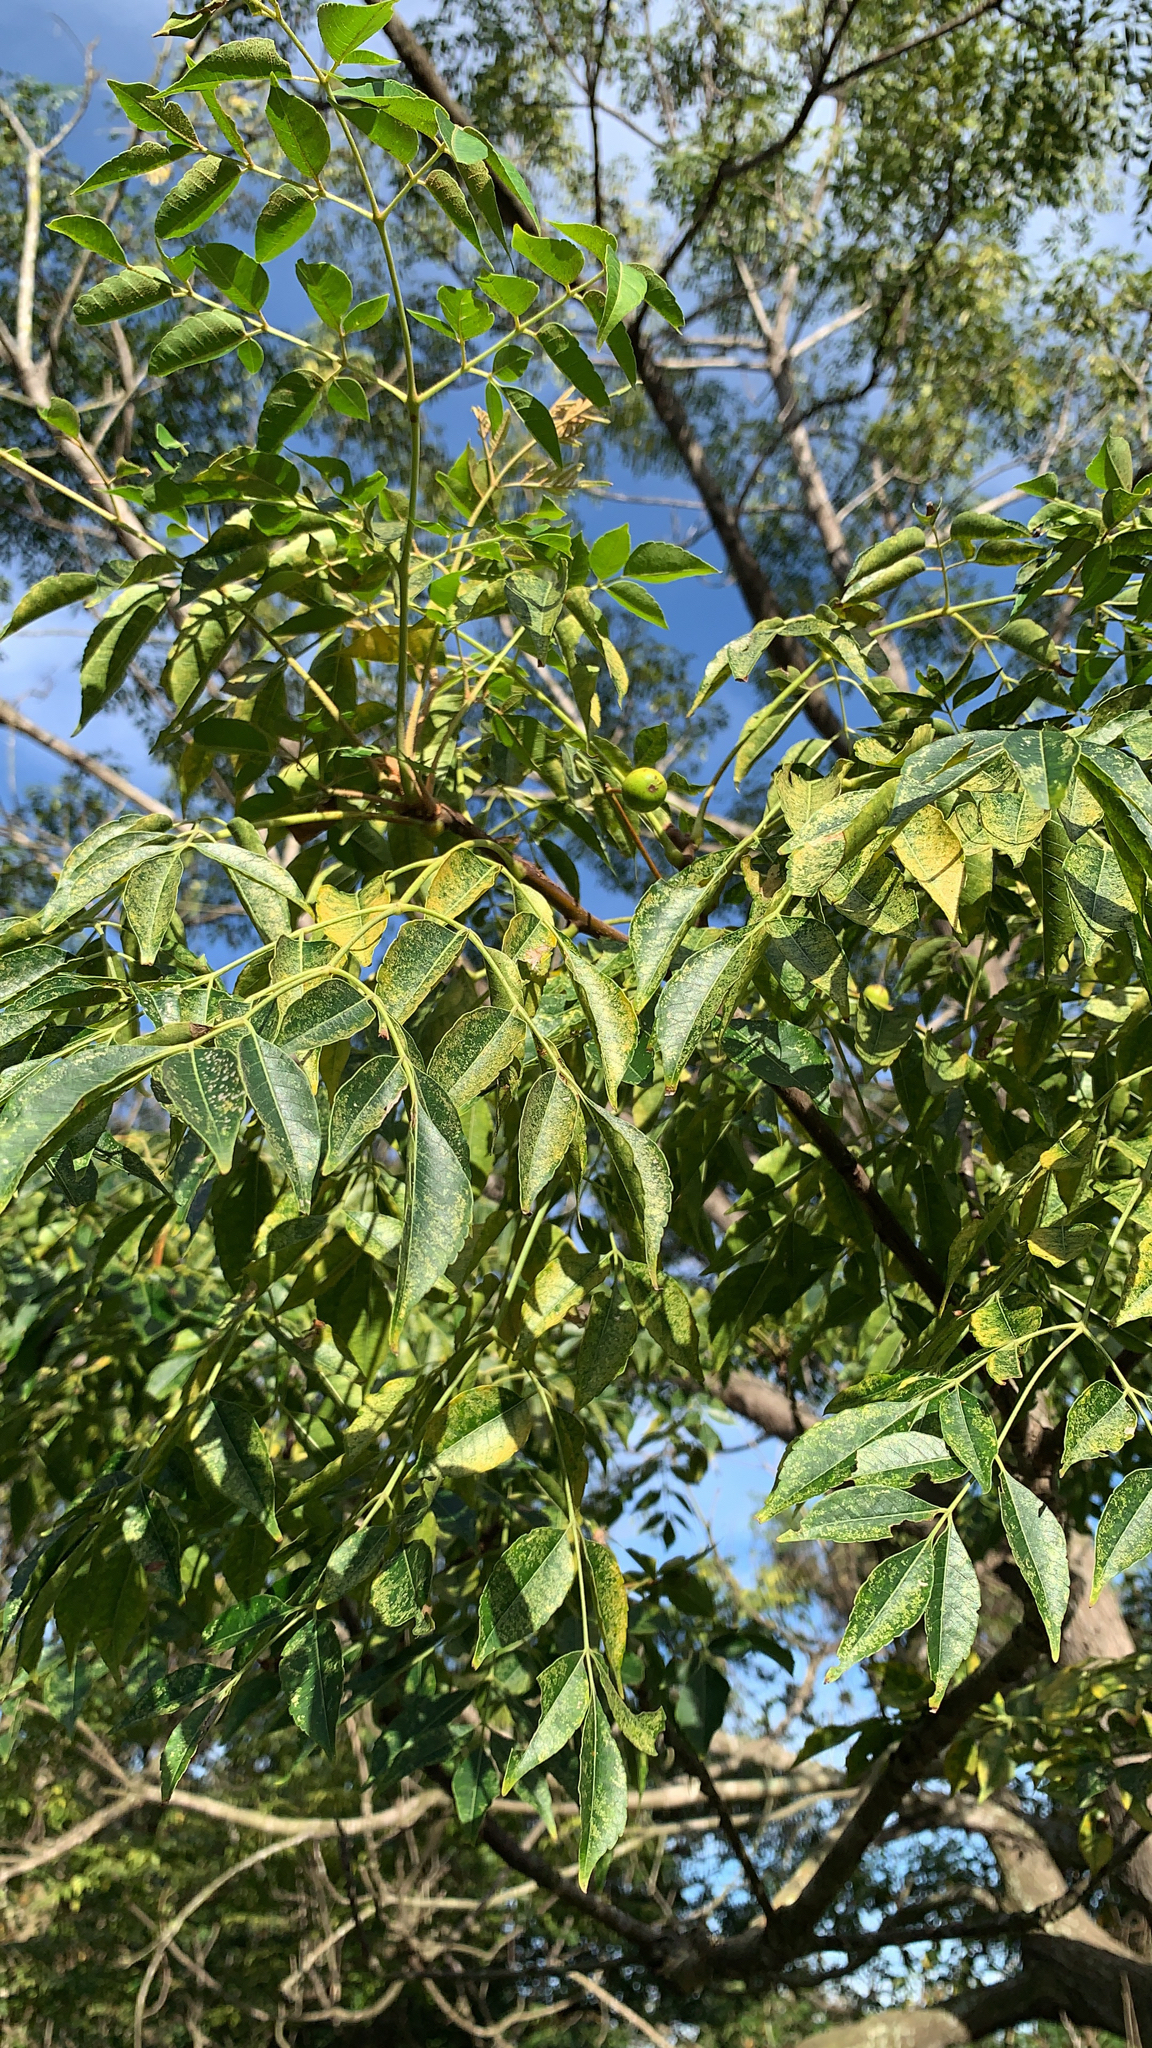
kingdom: Plantae
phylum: Tracheophyta
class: Magnoliopsida
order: Sapindales
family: Meliaceae
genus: Melia
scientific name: Melia azedarach
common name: Chinaberrytree
